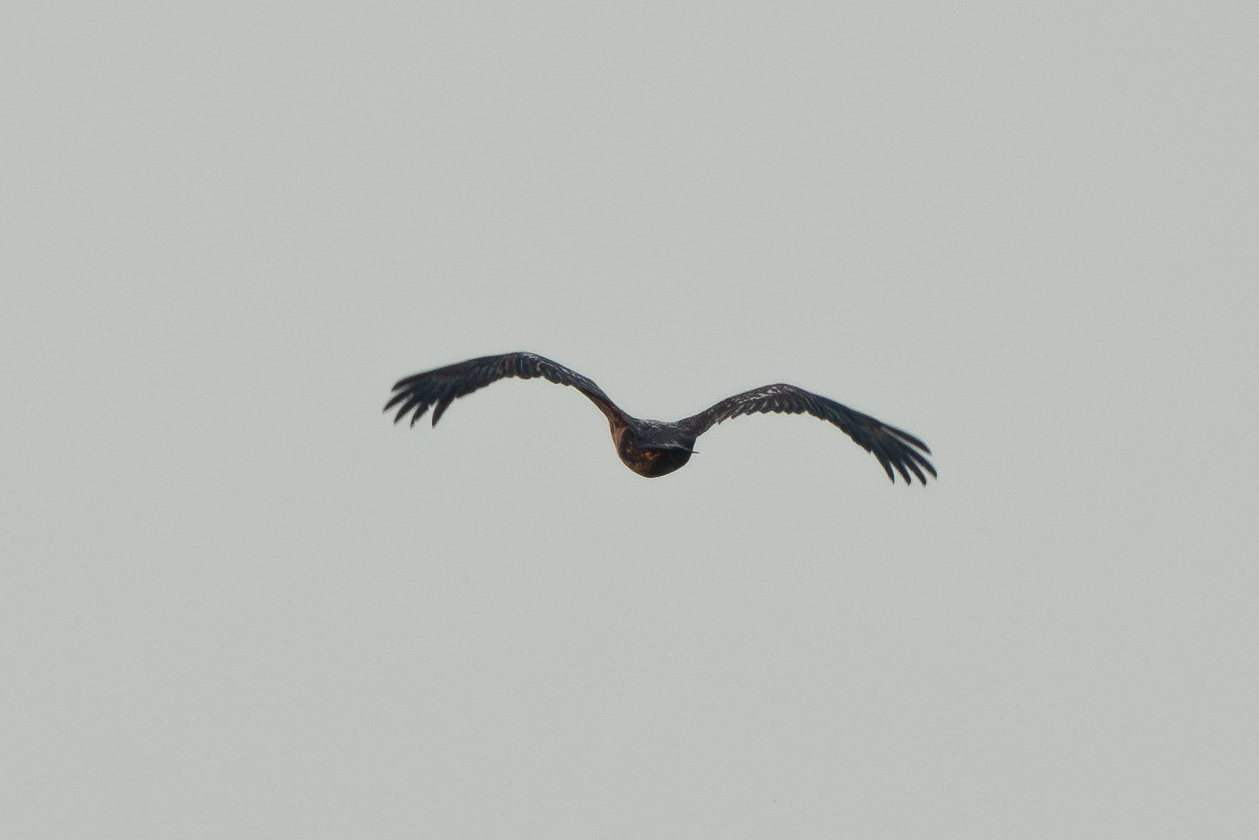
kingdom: Animalia
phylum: Chordata
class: Aves
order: Accipitriformes
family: Accipitridae
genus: Haliaeetus
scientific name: Haliaeetus leucocephalus
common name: Bald eagle
